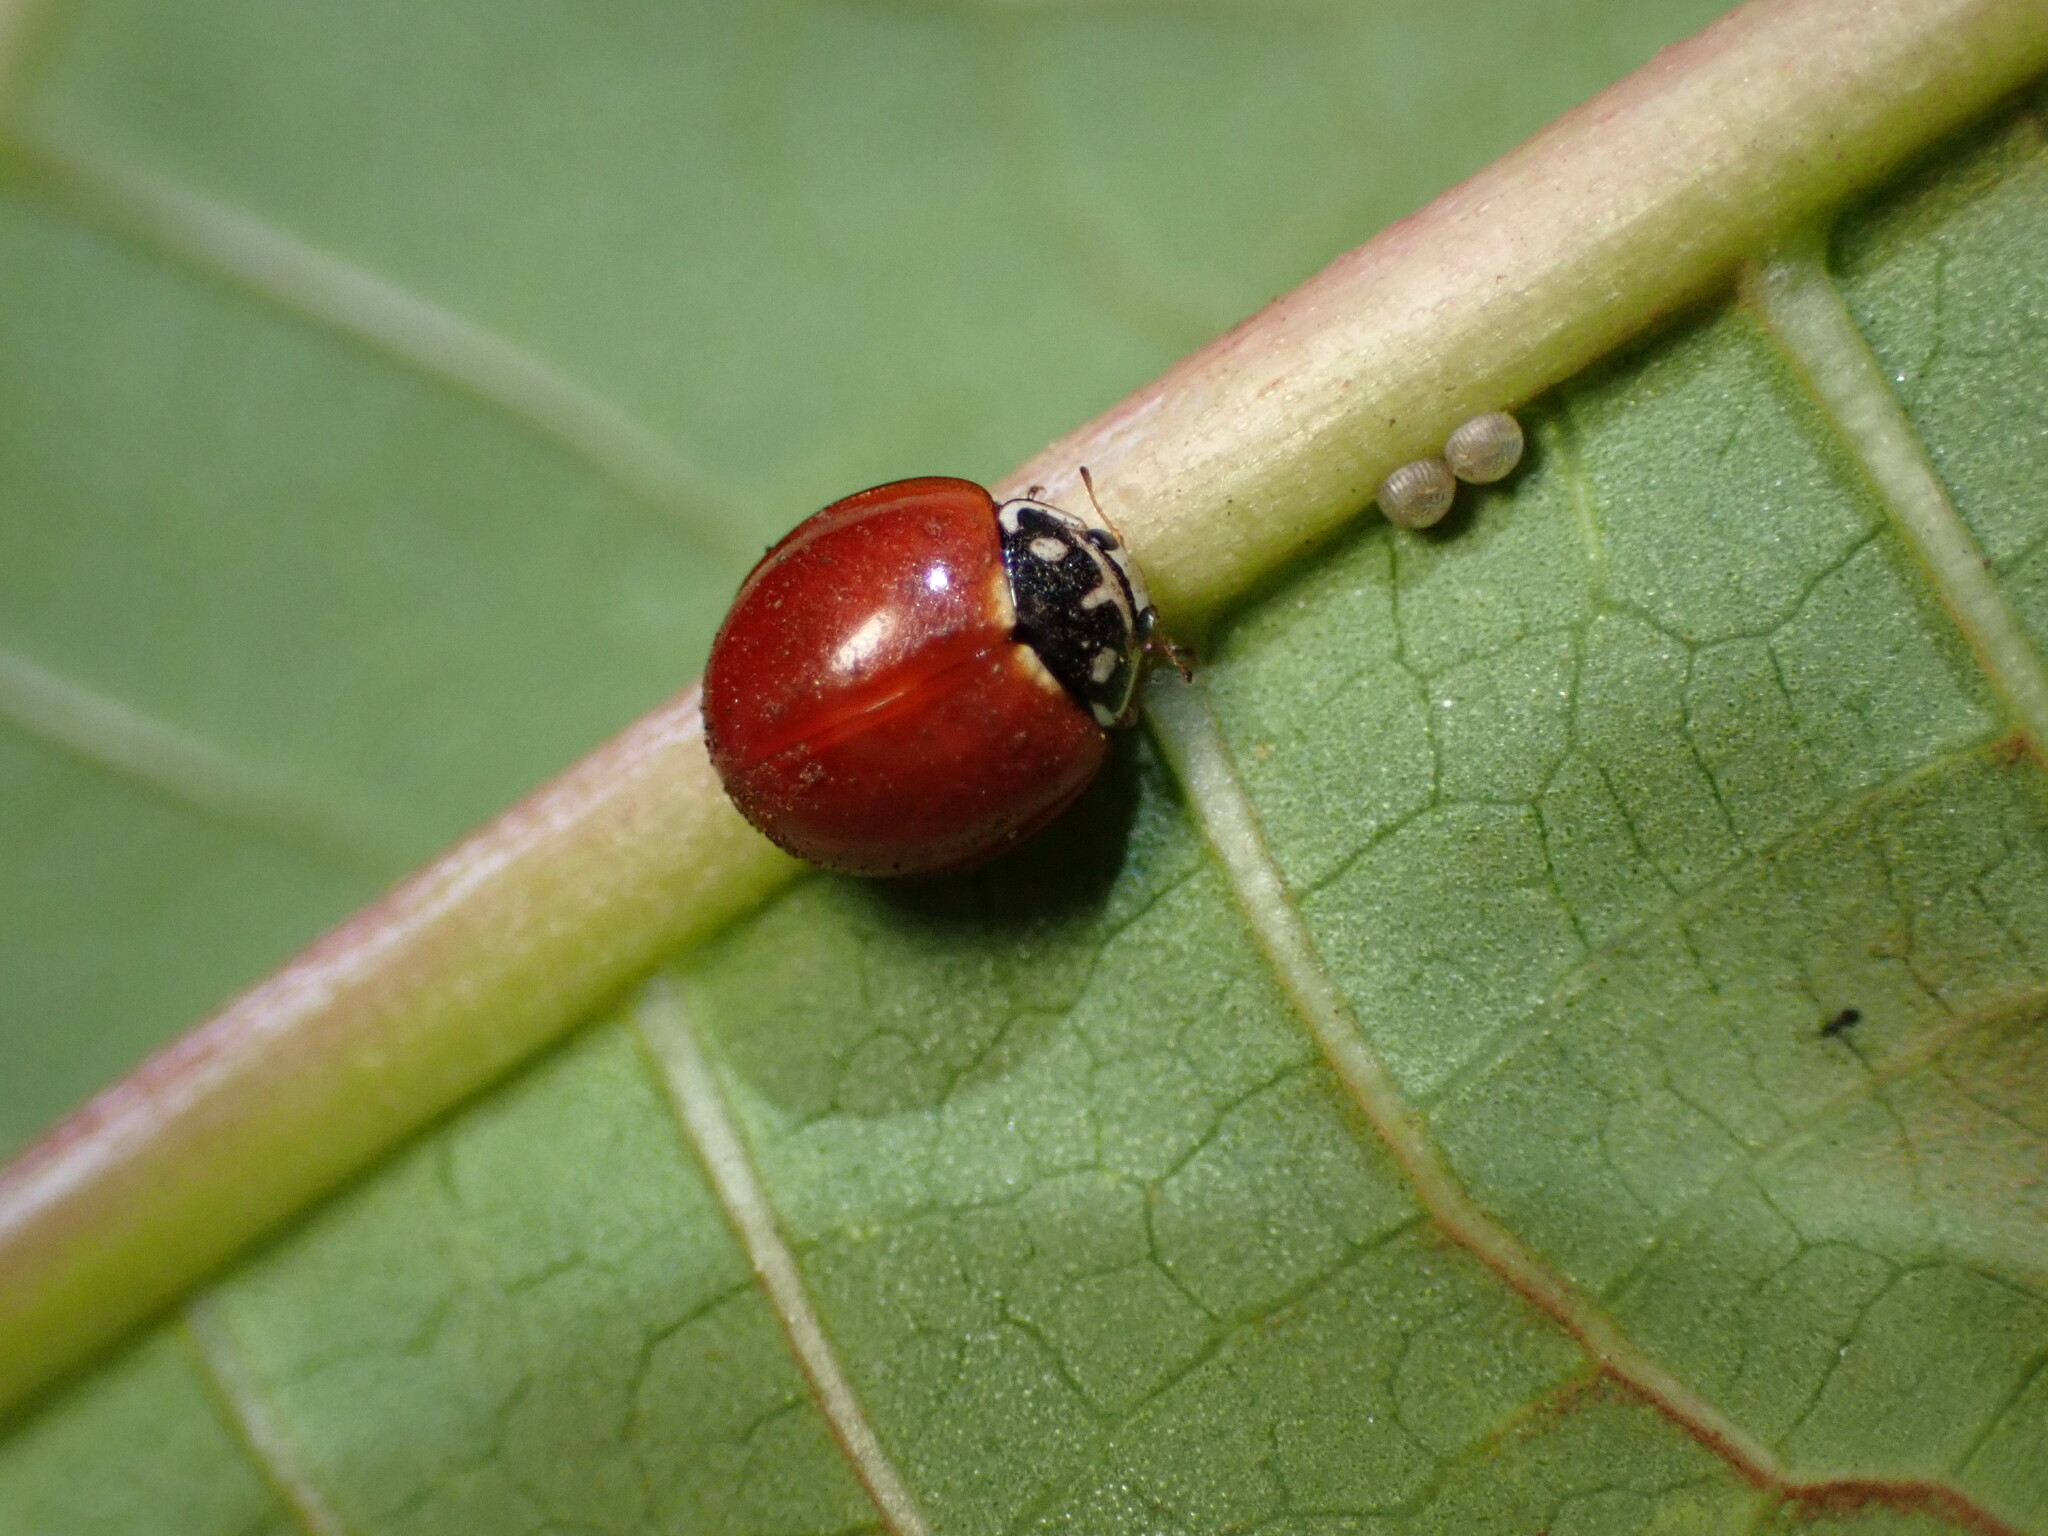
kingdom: Animalia
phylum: Arthropoda
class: Insecta
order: Coleoptera
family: Coccinellidae
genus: Cycloneda
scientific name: Cycloneda sanguinea
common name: Ladybird beetle
